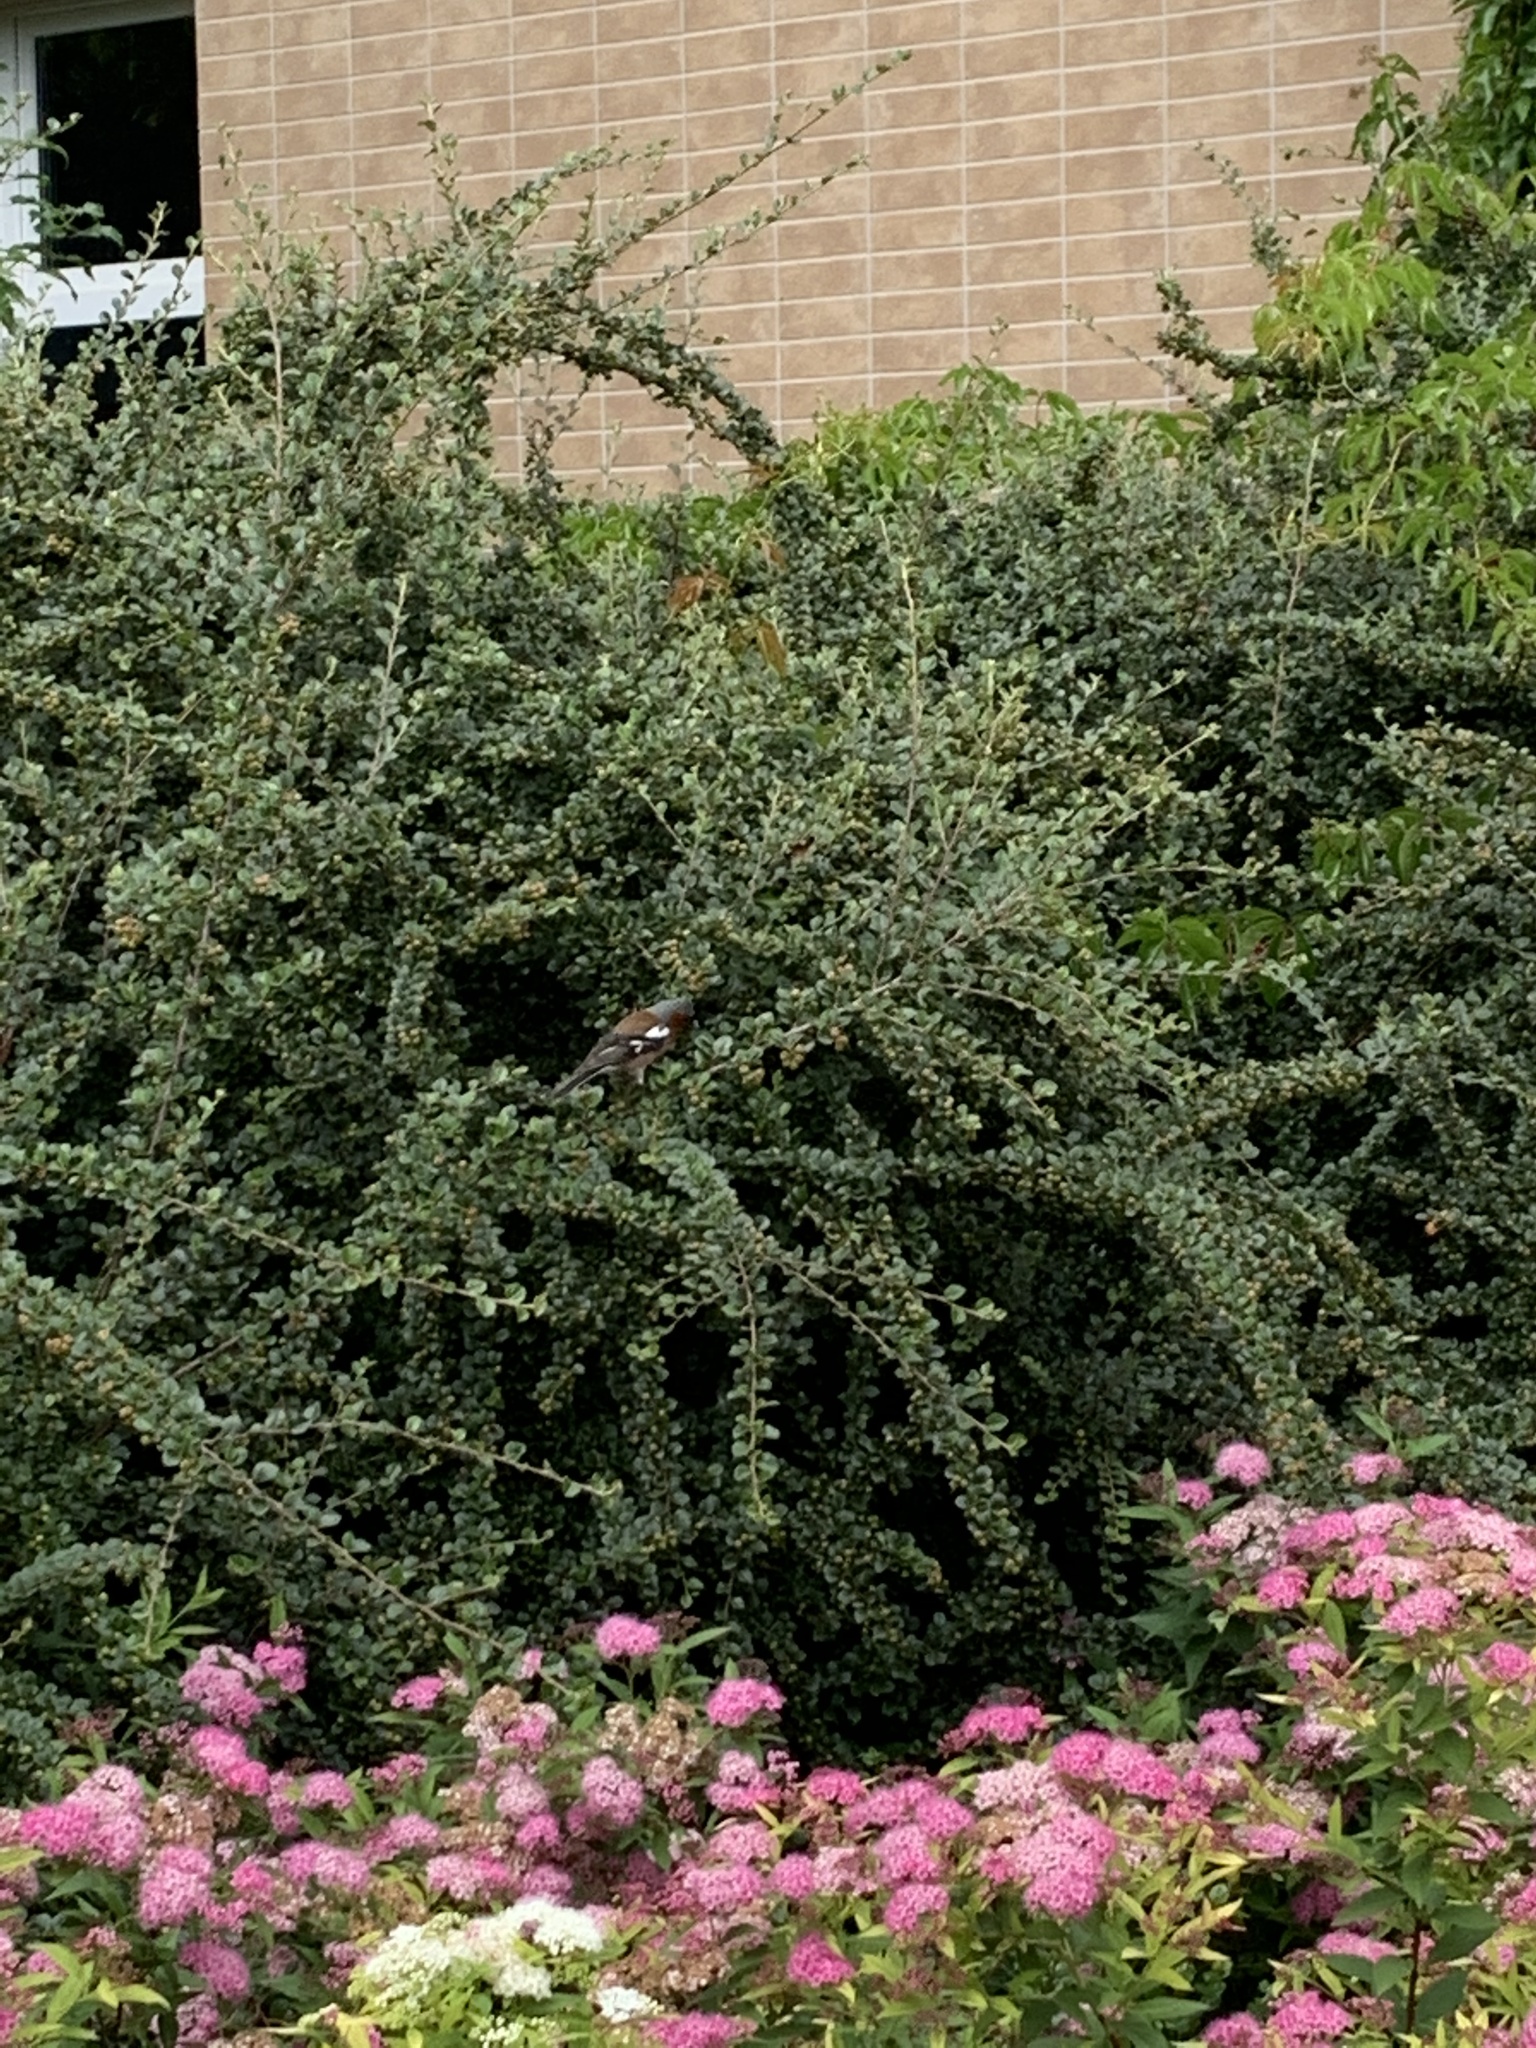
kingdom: Animalia
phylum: Chordata
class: Aves
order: Passeriformes
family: Fringillidae
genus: Fringilla
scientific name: Fringilla coelebs
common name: Common chaffinch
